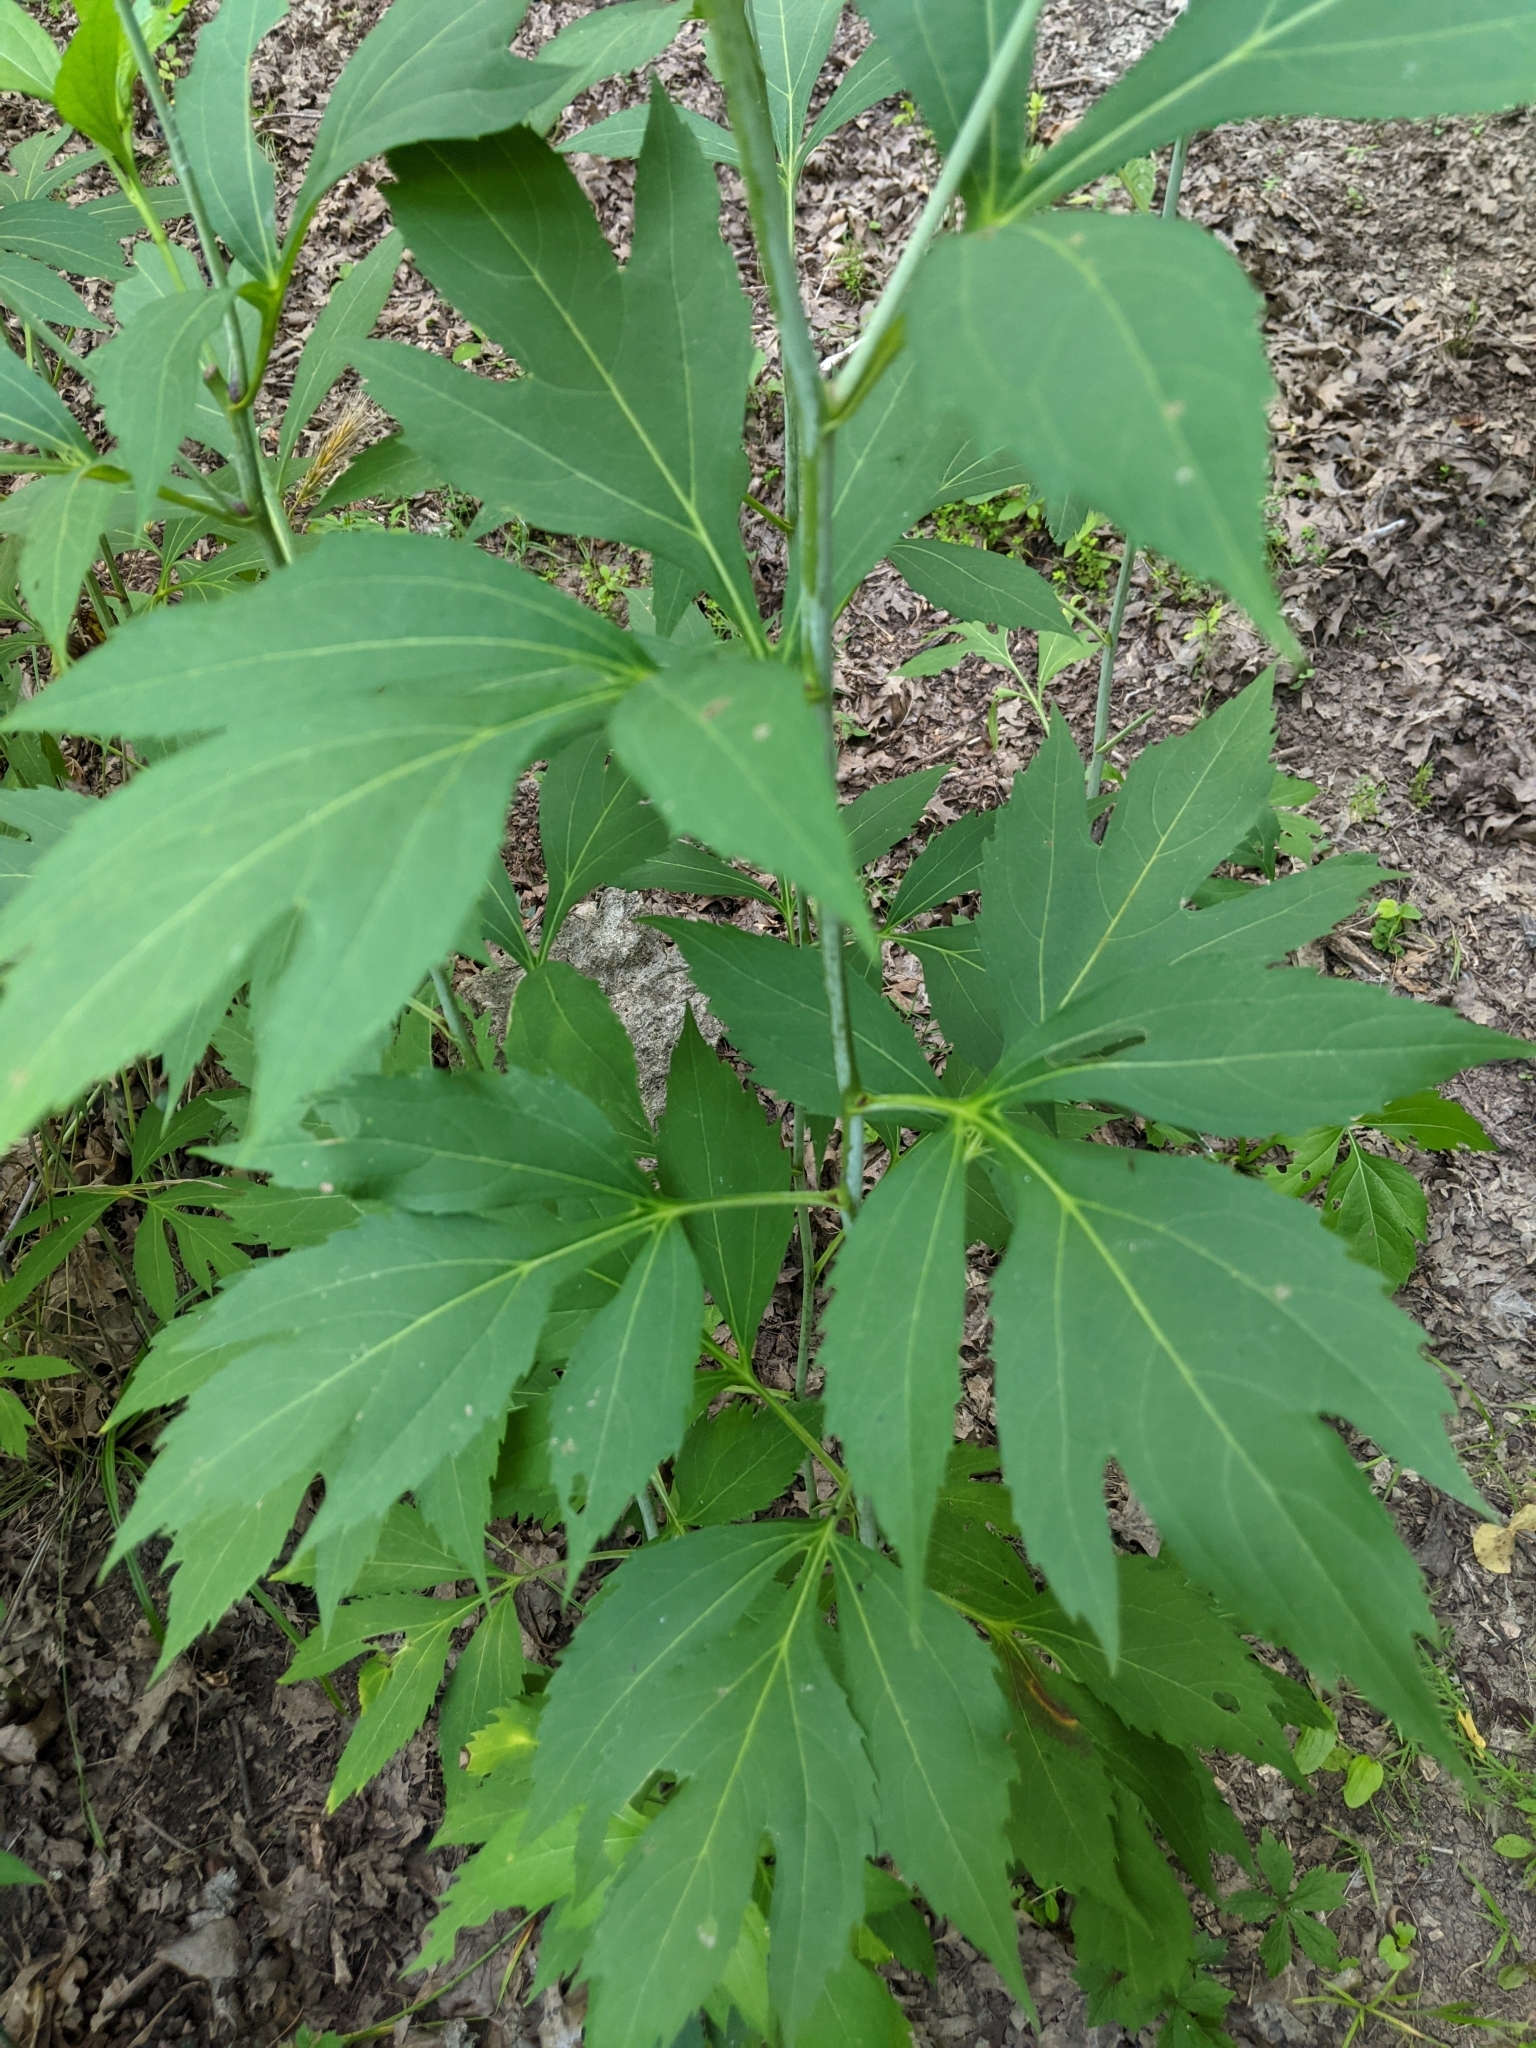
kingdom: Plantae
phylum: Tracheophyta
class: Magnoliopsida
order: Asterales
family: Asteraceae
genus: Rudbeckia
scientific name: Rudbeckia laciniata
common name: Coneflower
